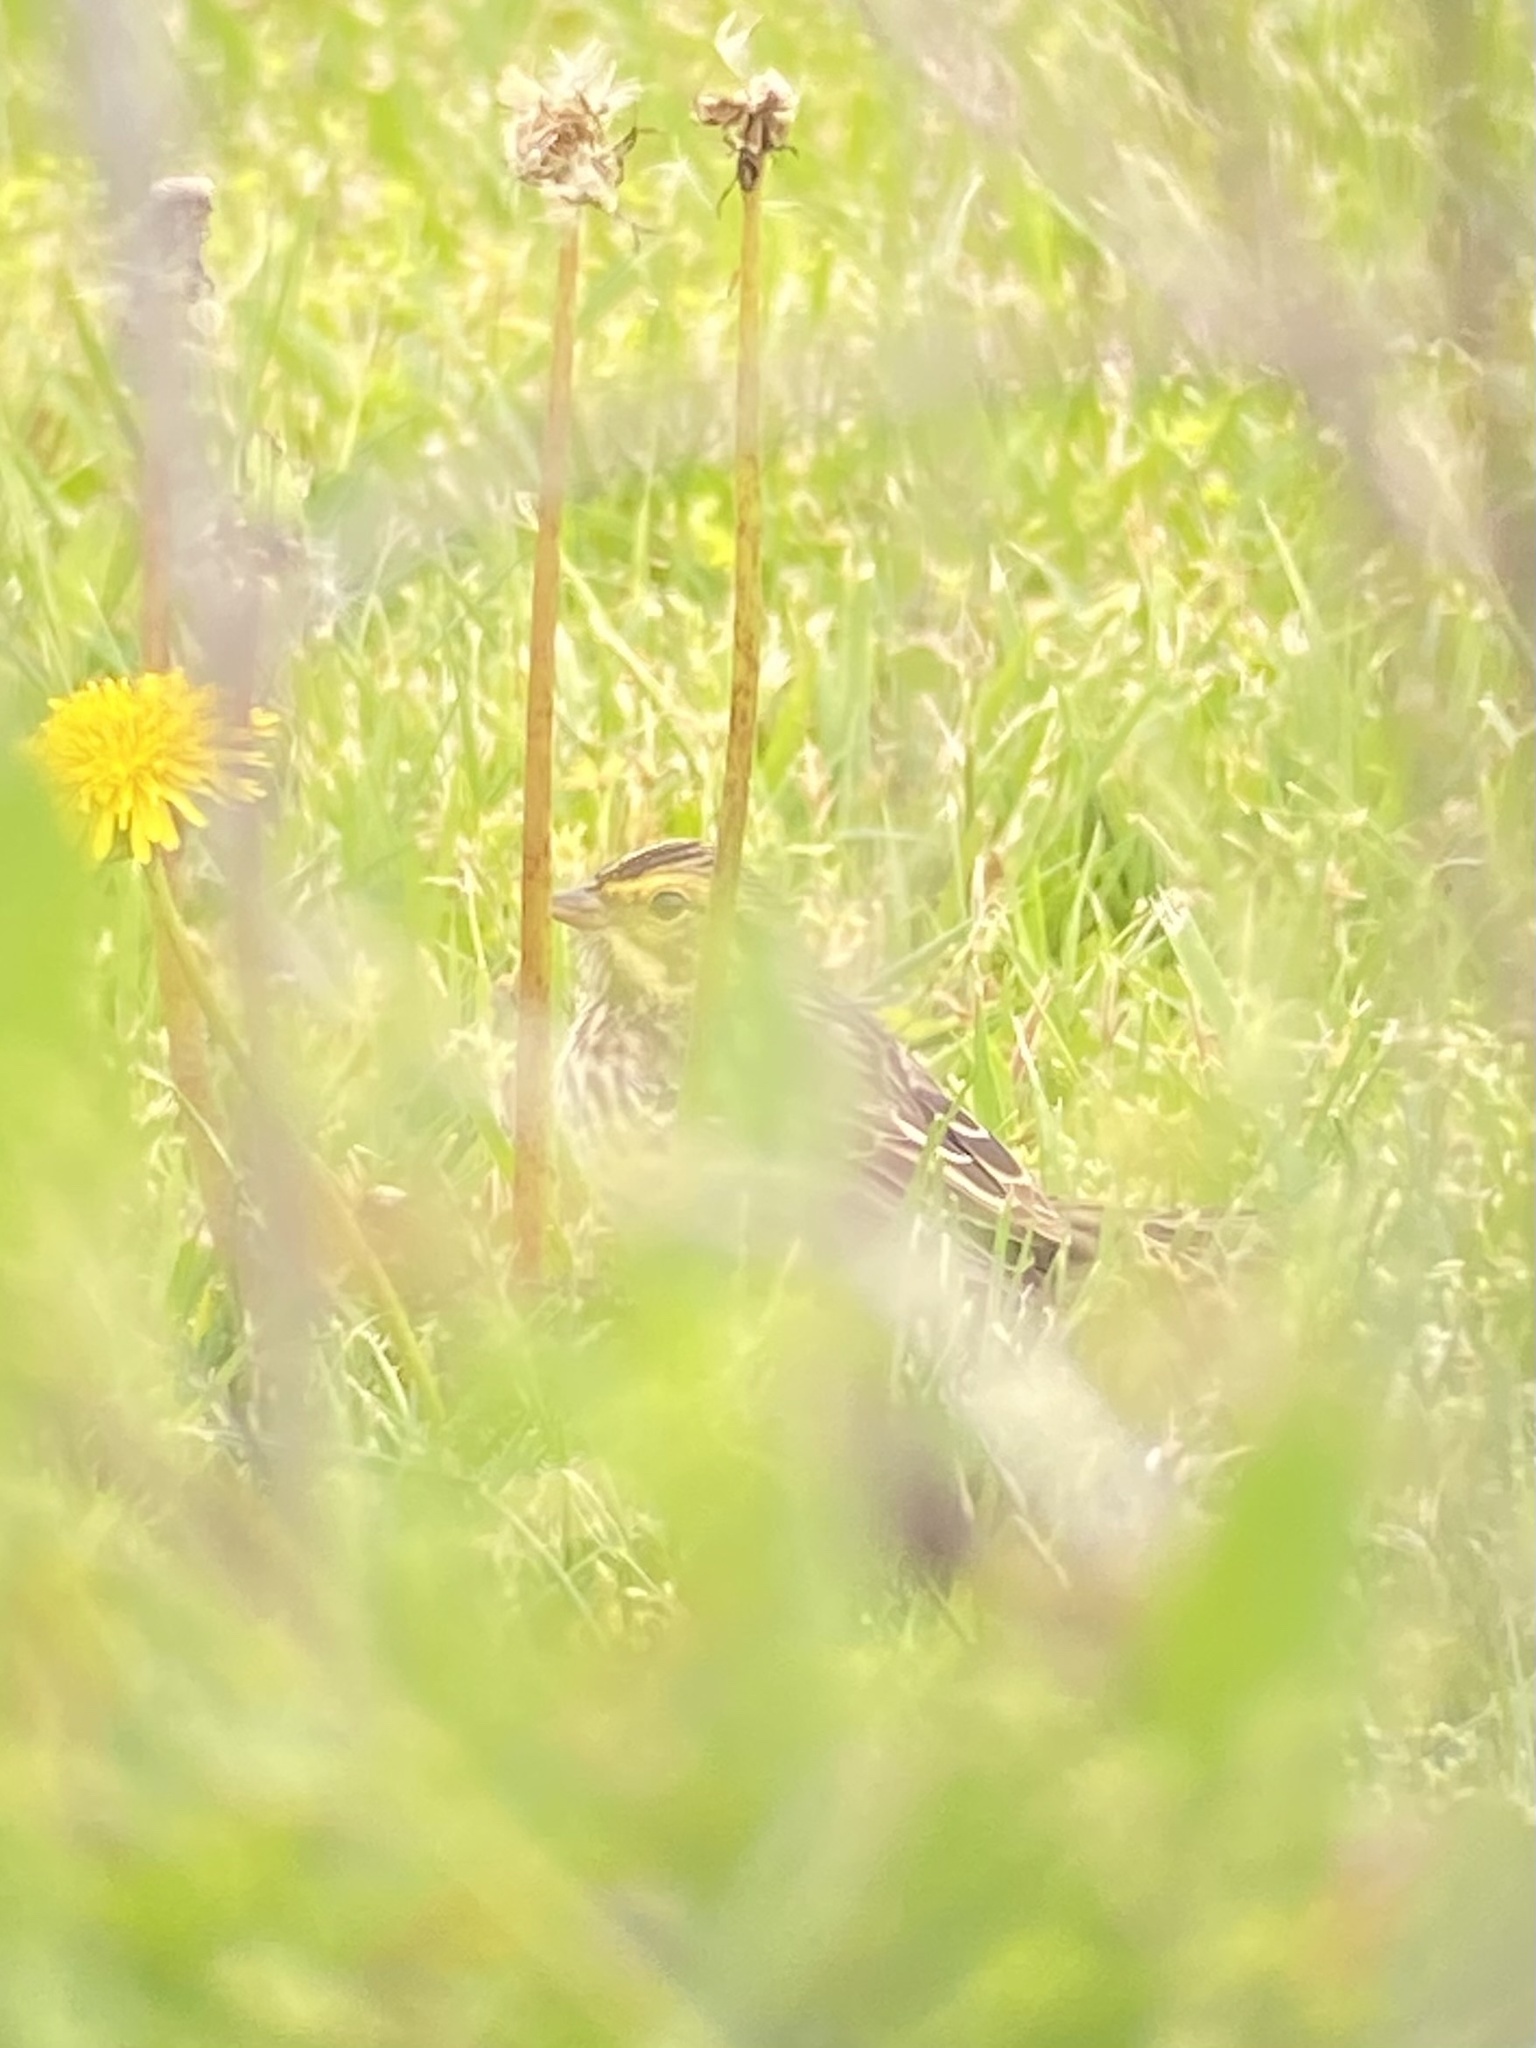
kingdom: Animalia
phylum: Chordata
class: Aves
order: Passeriformes
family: Passerellidae
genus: Passerculus
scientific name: Passerculus sandwichensis
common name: Savannah sparrow
